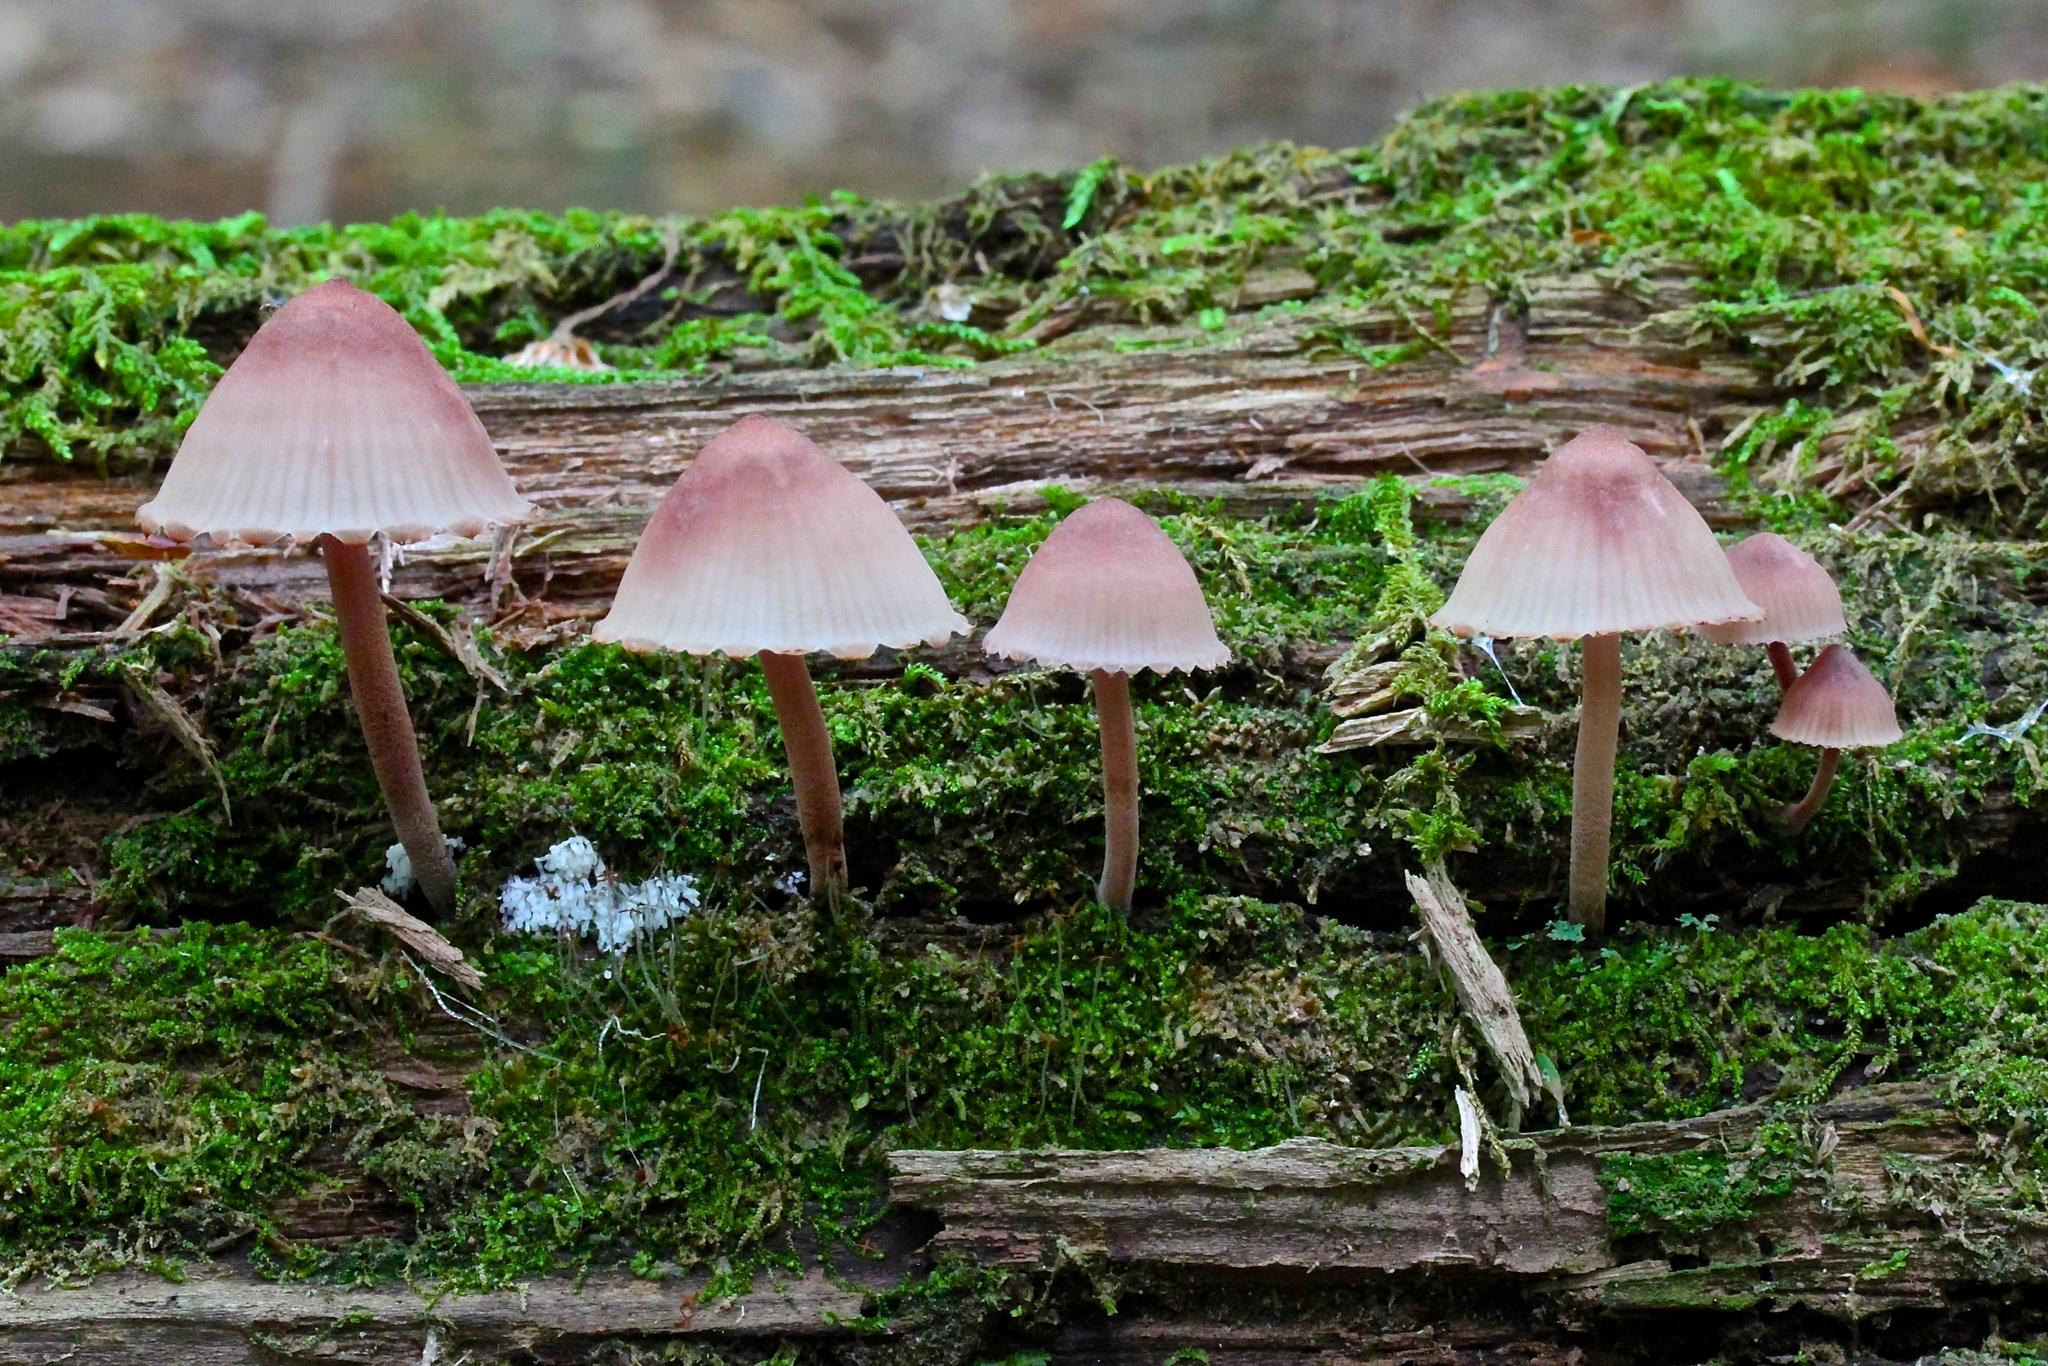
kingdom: Fungi
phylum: Basidiomycota
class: Agaricomycetes
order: Agaricales
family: Mycenaceae
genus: Mycena
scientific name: Mycena haematopus
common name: Burgundydrop bonnet
